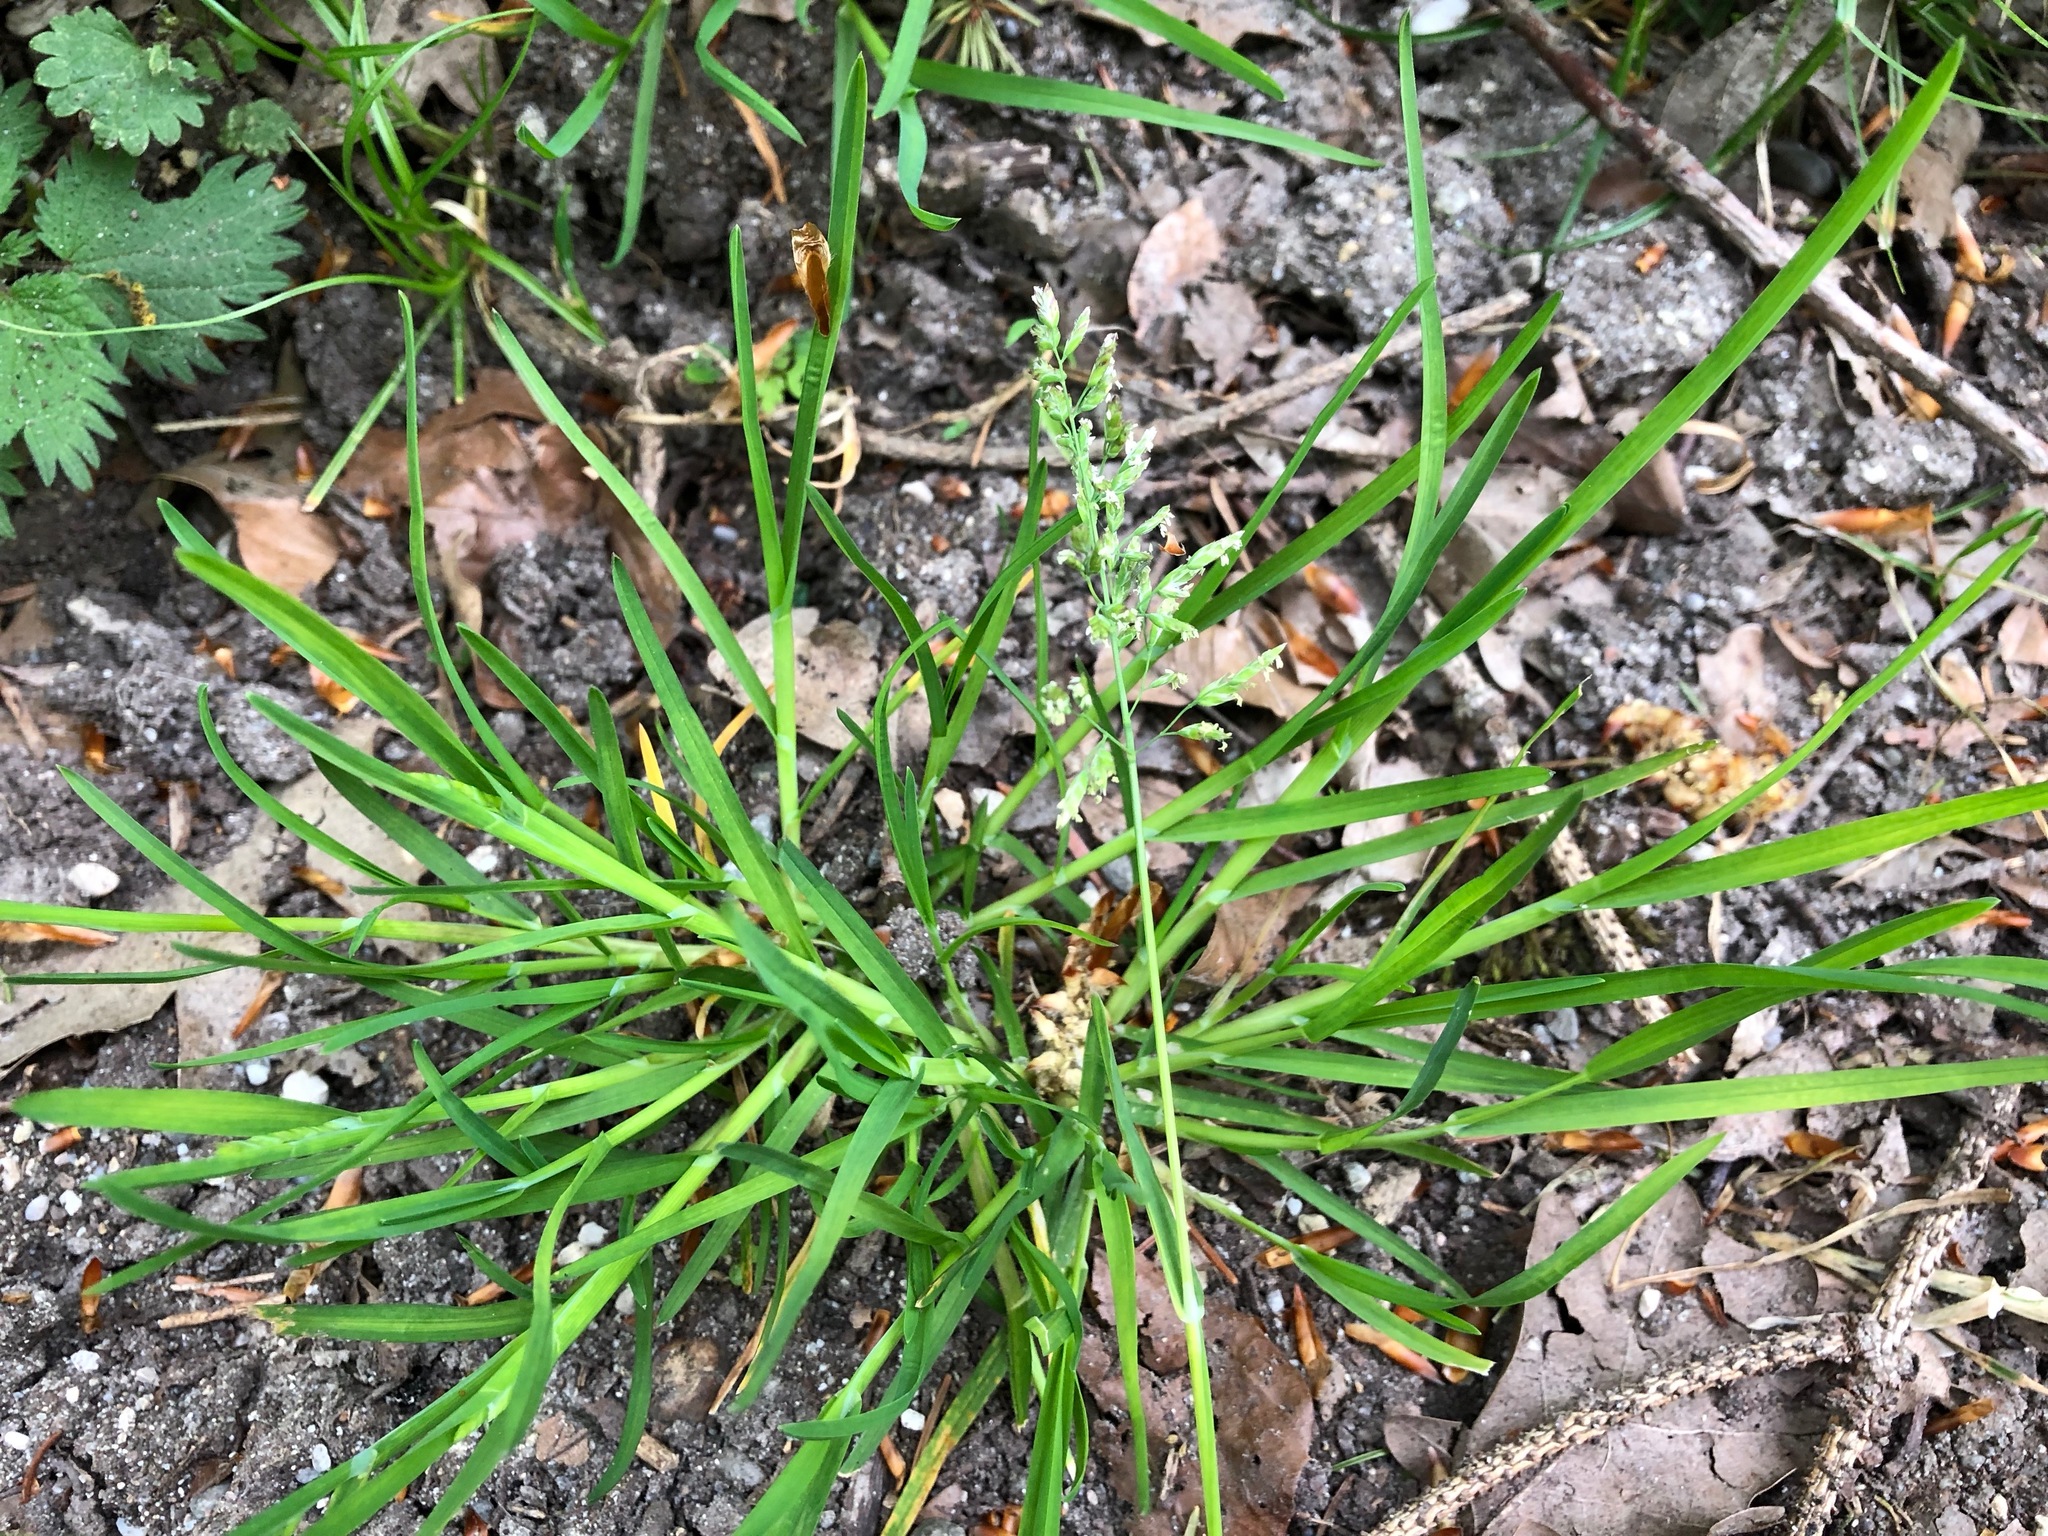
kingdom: Plantae
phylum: Tracheophyta
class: Liliopsida
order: Poales
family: Poaceae
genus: Poa
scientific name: Poa annua
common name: Annual bluegrass
